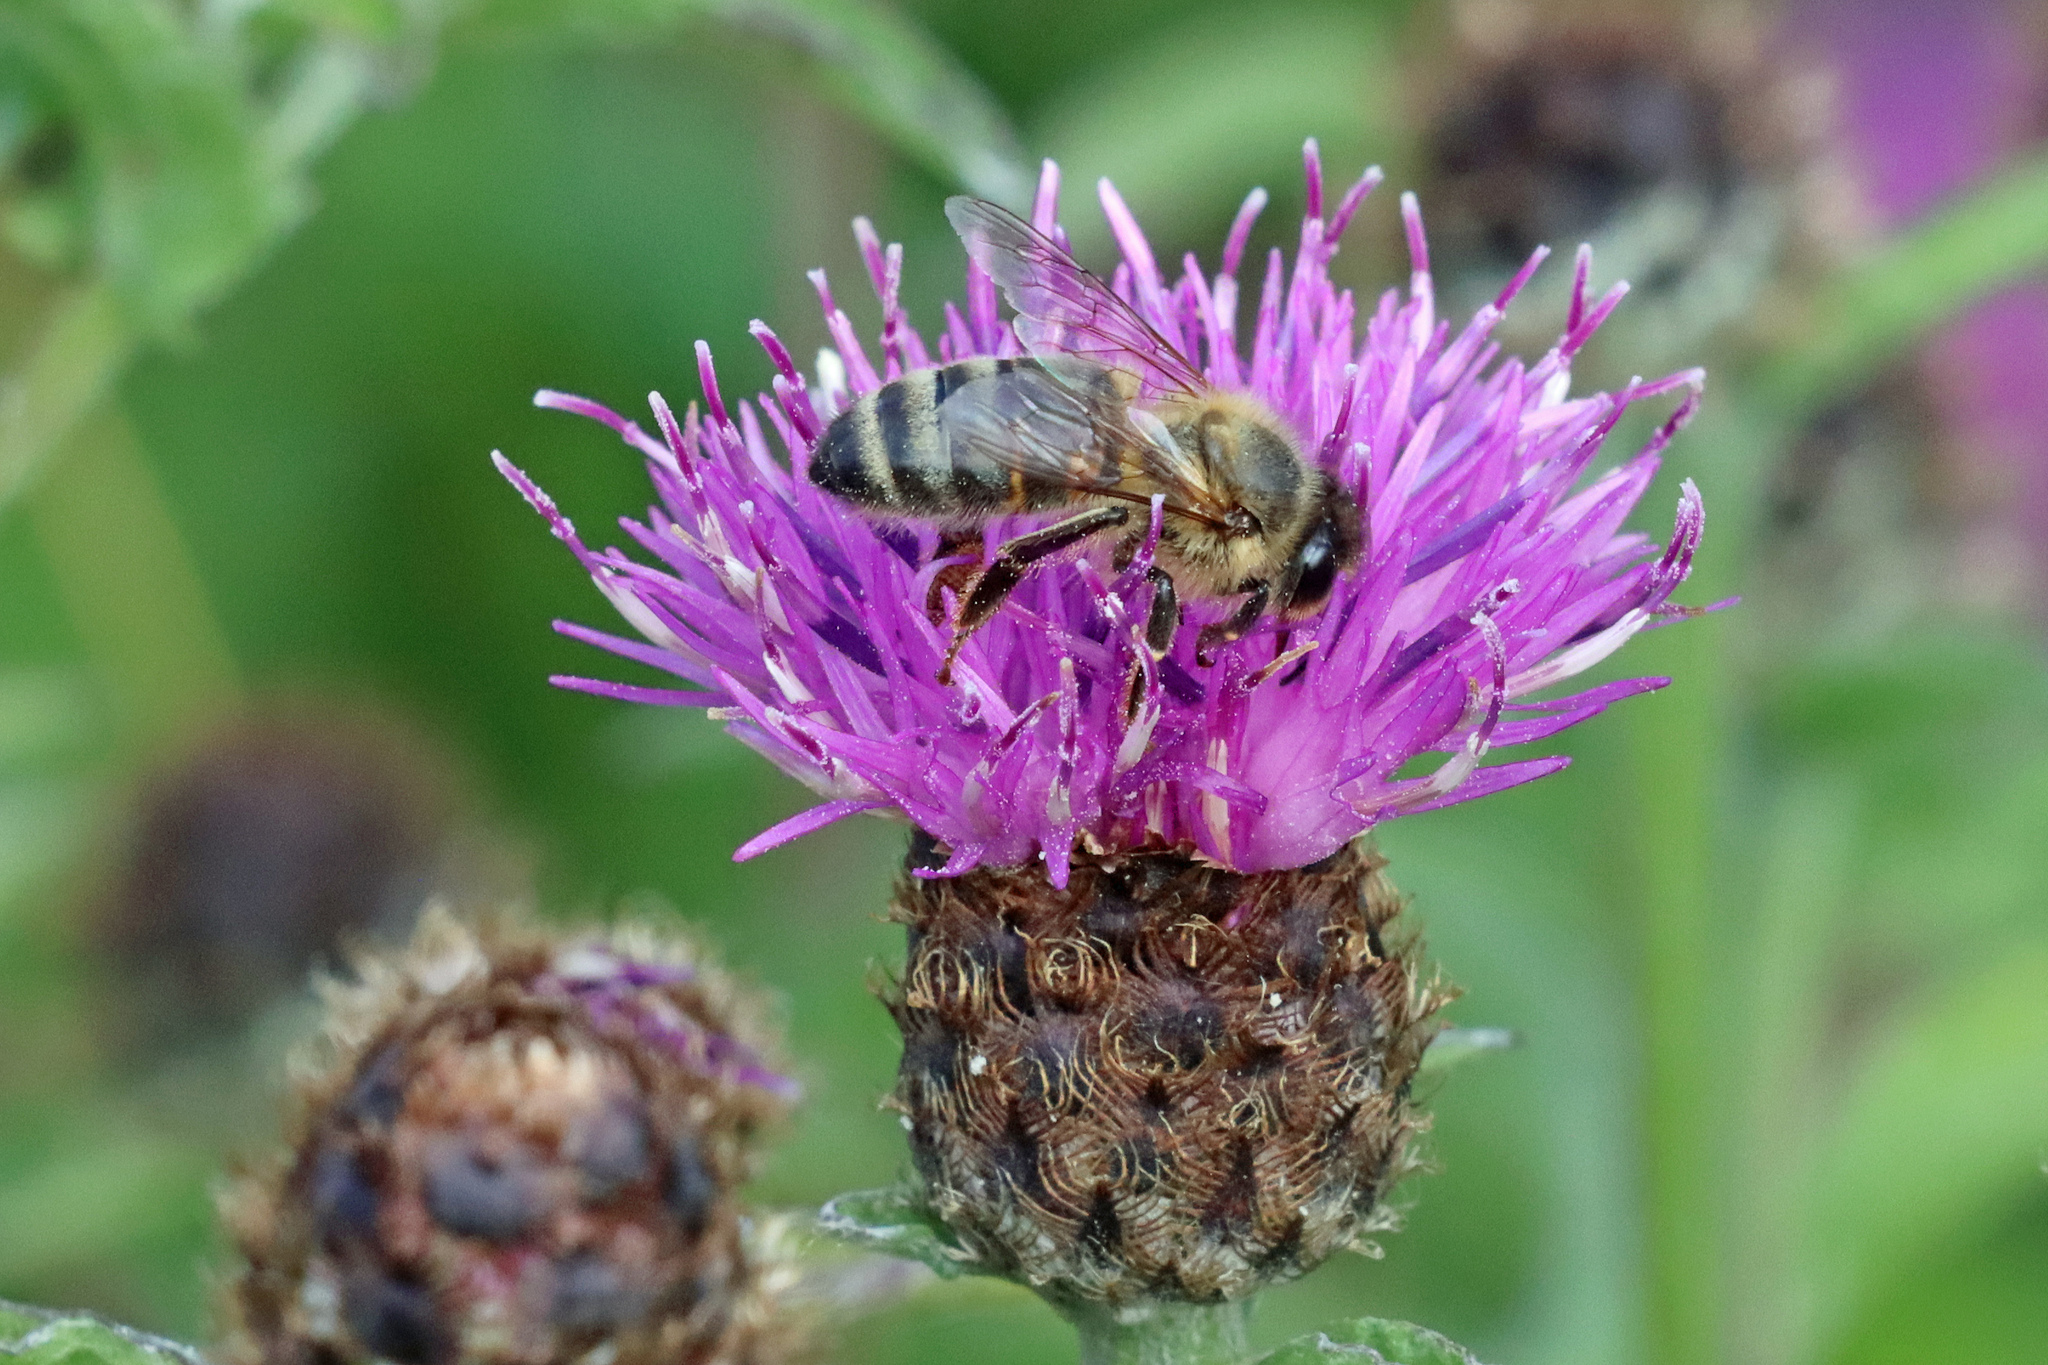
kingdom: Animalia
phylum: Arthropoda
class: Insecta
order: Hymenoptera
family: Apidae
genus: Apis
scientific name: Apis mellifera
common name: Honey bee
